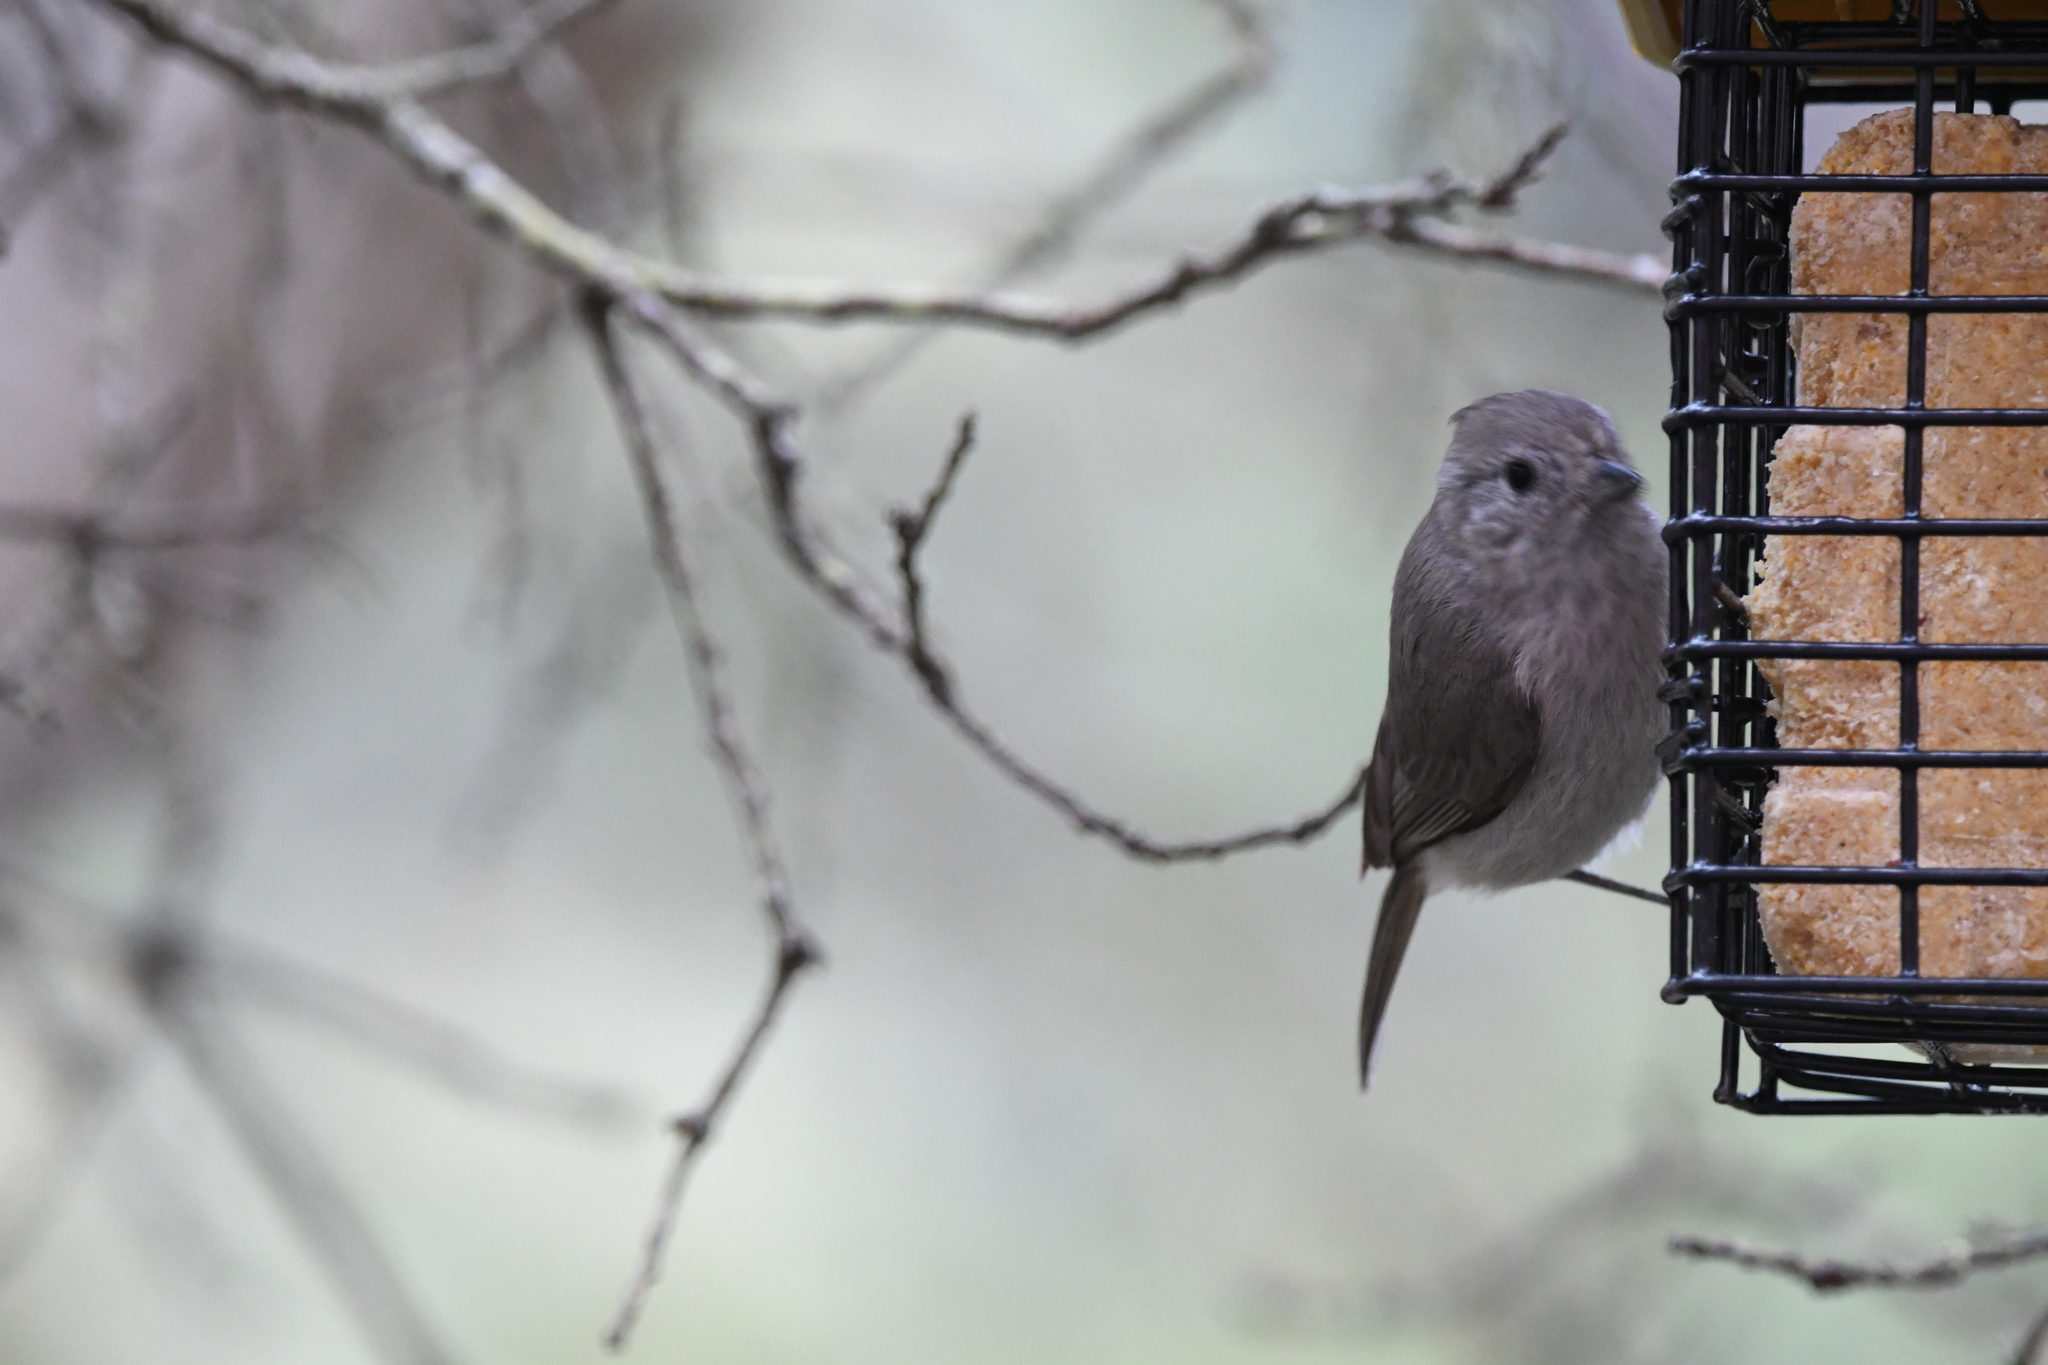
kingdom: Animalia
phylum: Chordata
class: Aves
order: Passeriformes
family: Paridae
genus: Baeolophus
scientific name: Baeolophus inornatus
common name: Oak titmouse
